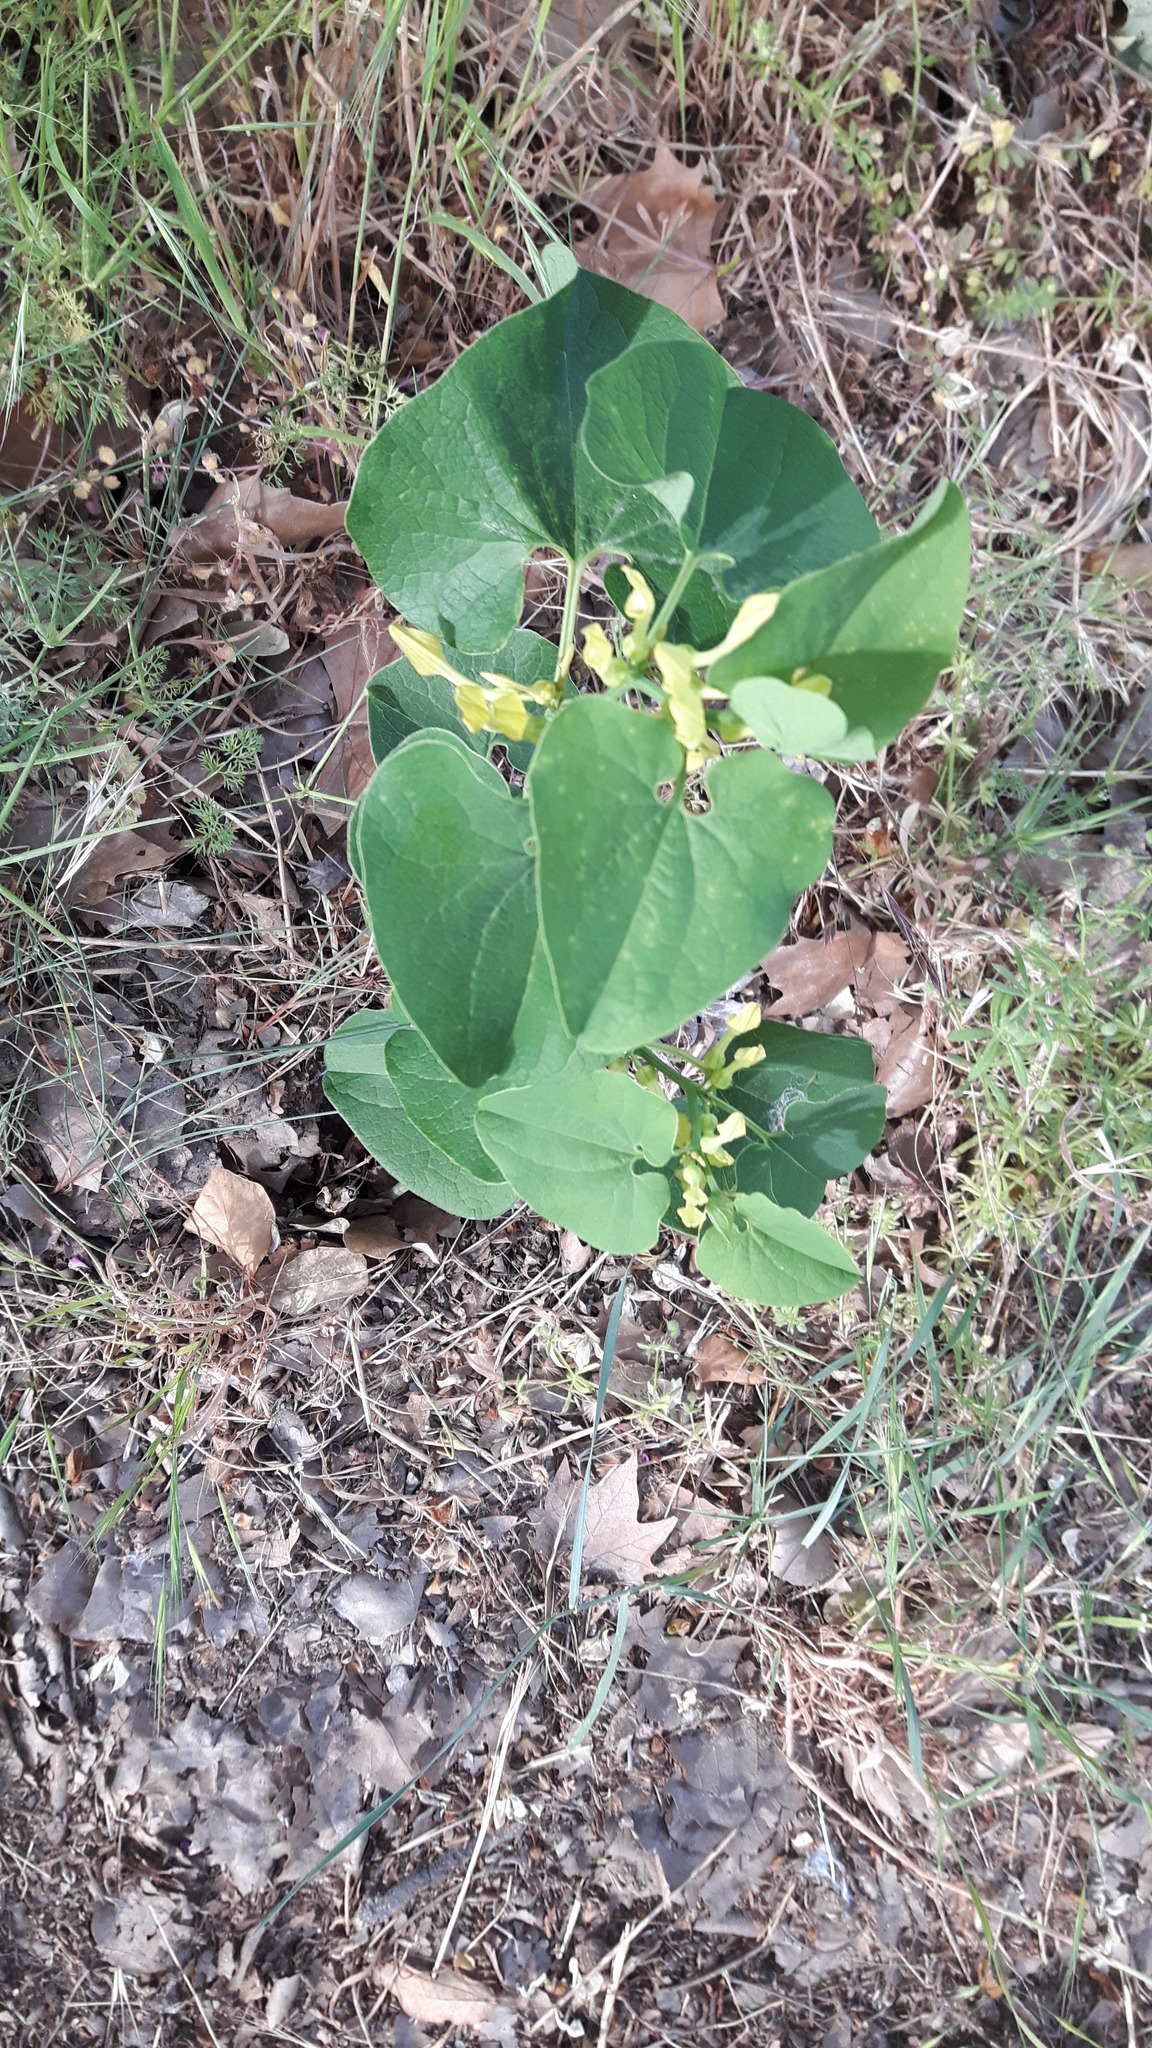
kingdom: Plantae
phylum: Tracheophyta
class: Magnoliopsida
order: Piperales
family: Aristolochiaceae
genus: Aristolochia
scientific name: Aristolochia clematitis
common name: Birthwort
